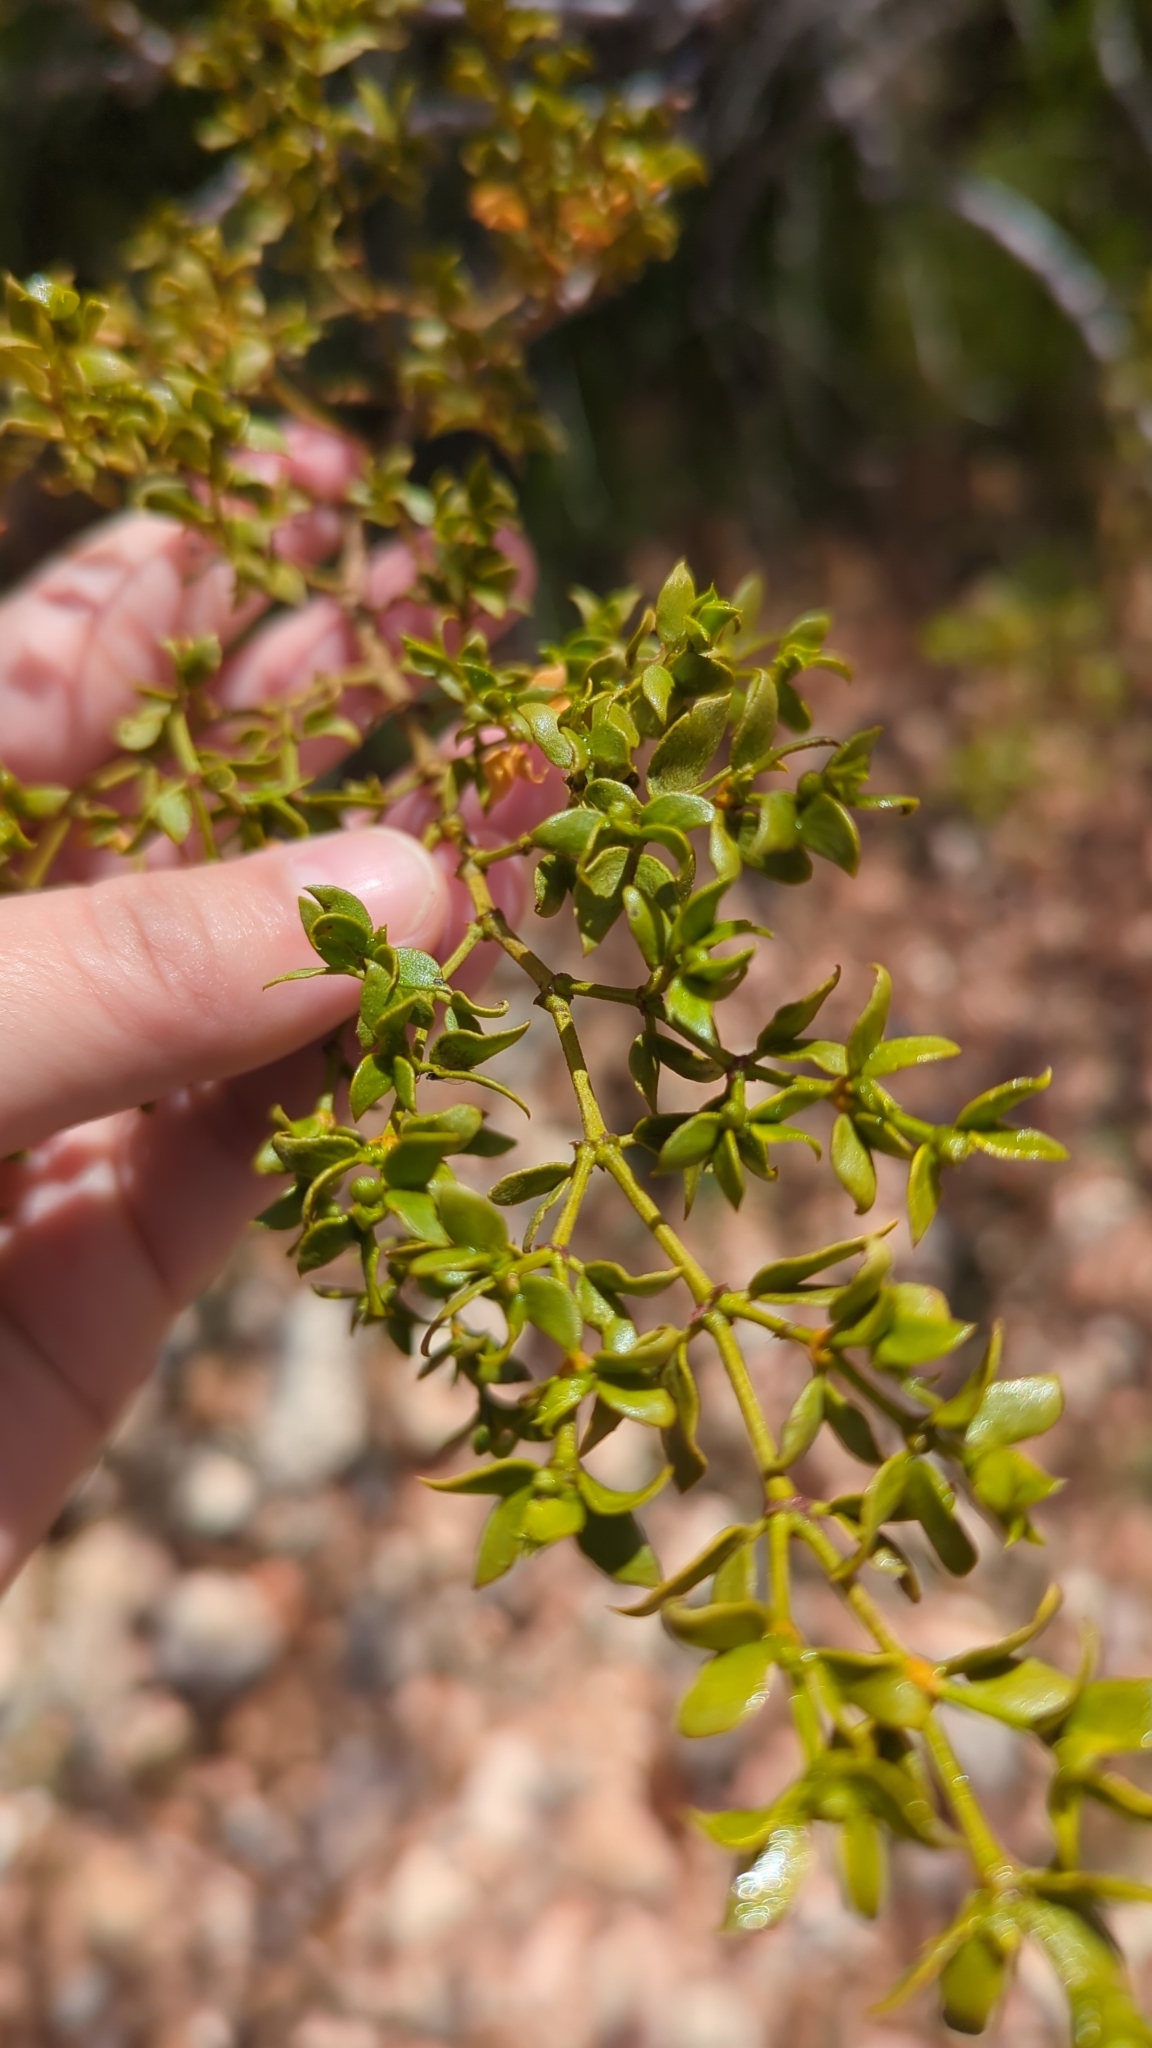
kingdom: Plantae
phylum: Tracheophyta
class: Magnoliopsida
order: Zygophyllales
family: Zygophyllaceae
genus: Larrea
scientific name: Larrea tridentata
